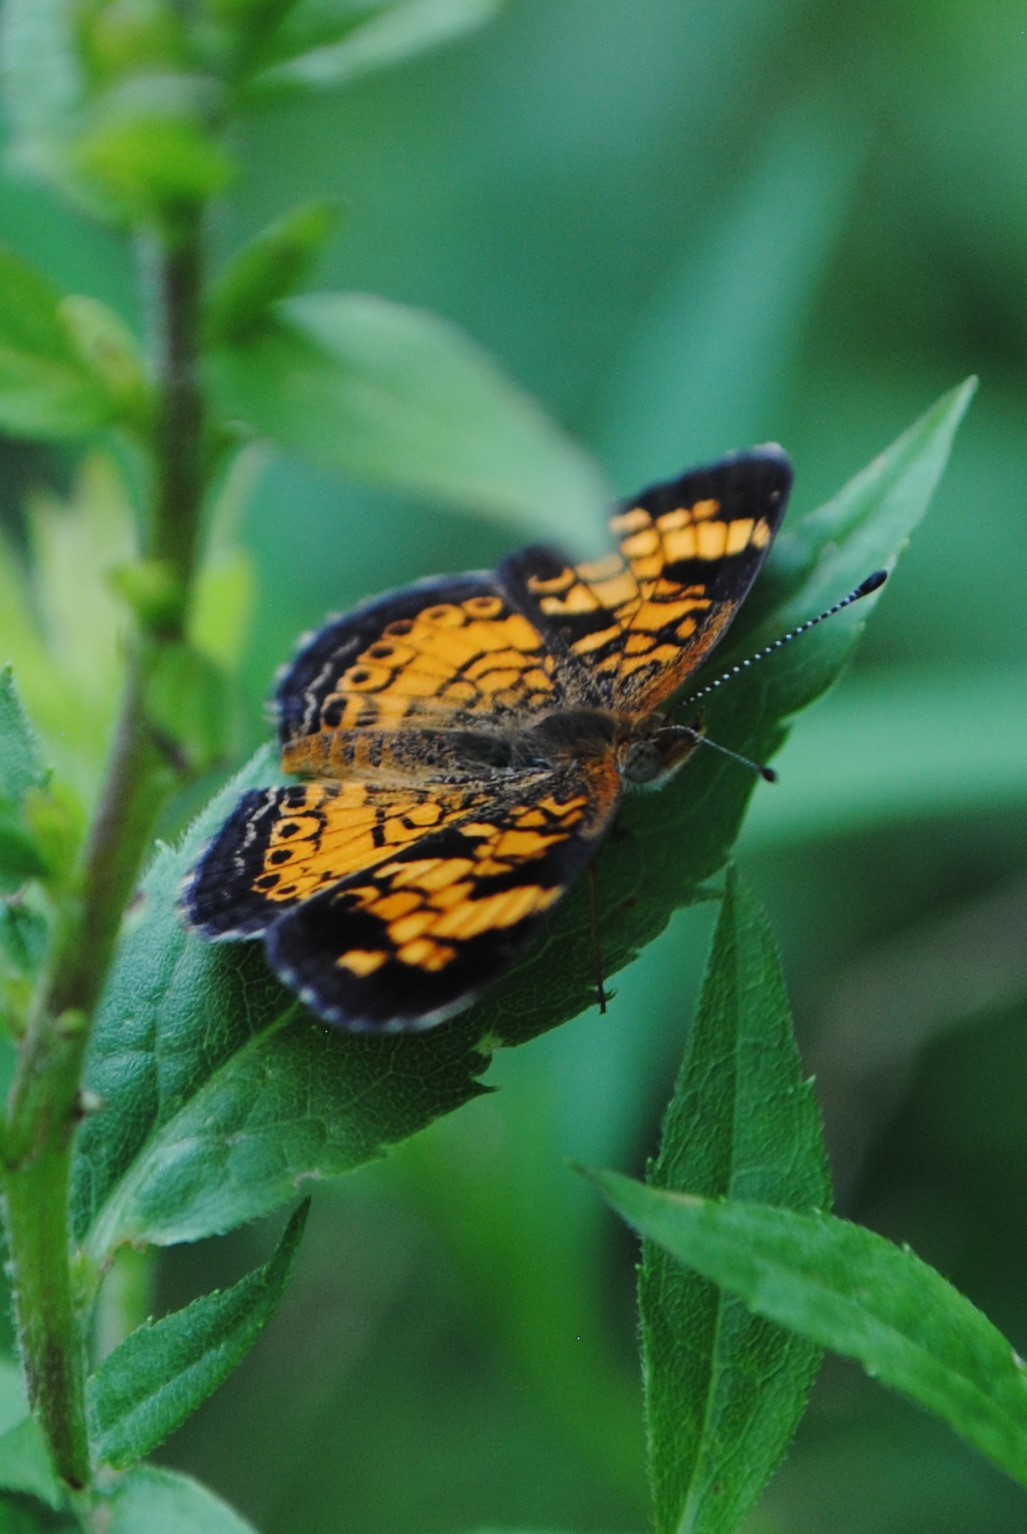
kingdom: Animalia
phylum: Arthropoda
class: Insecta
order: Lepidoptera
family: Nymphalidae
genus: Phyciodes
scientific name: Phyciodes tharos
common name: Pearl crescent
